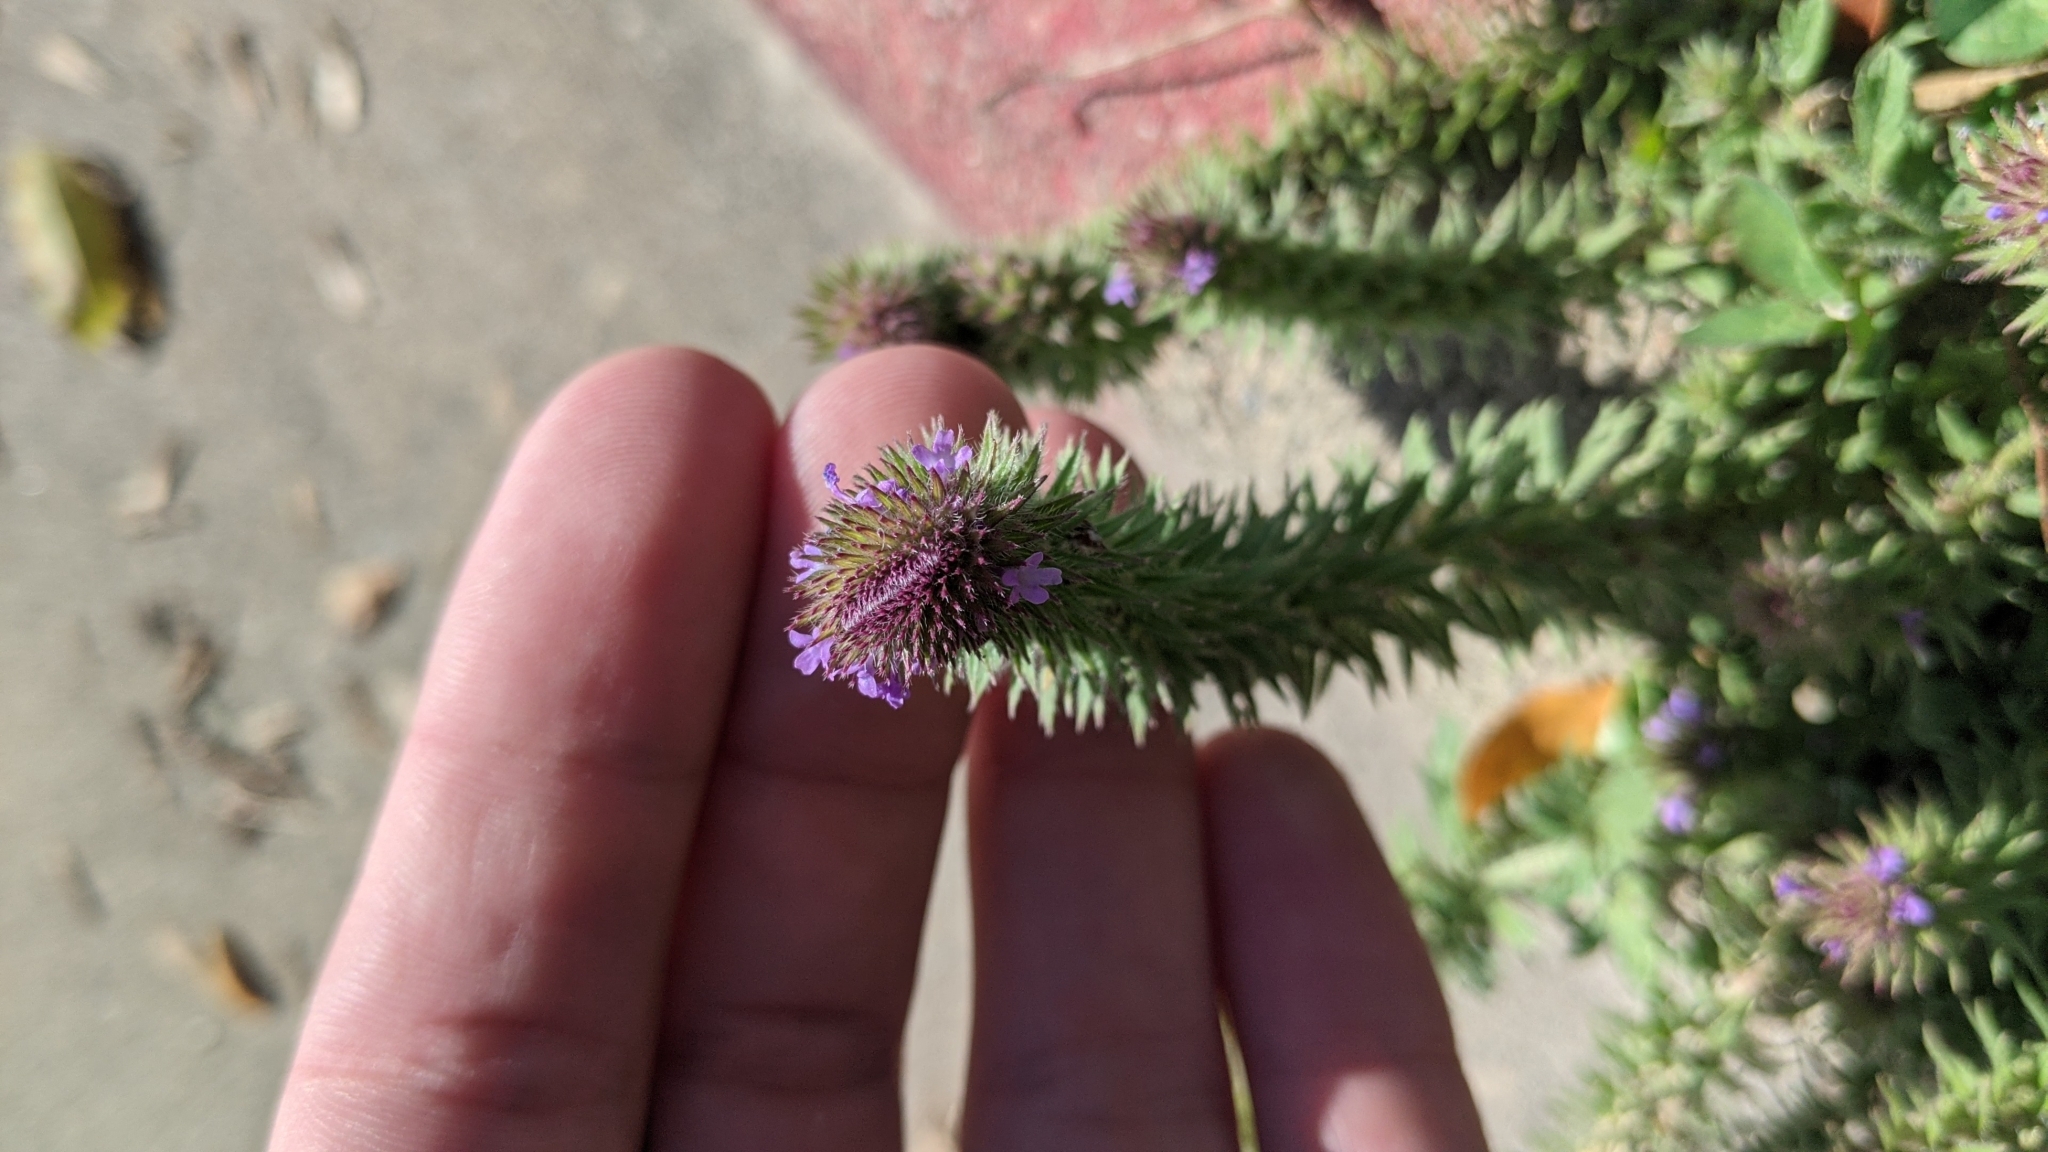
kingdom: Plantae
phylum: Tracheophyta
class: Magnoliopsida
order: Lamiales
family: Verbenaceae
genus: Verbena
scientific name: Verbena bracteata
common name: Bracted vervain
